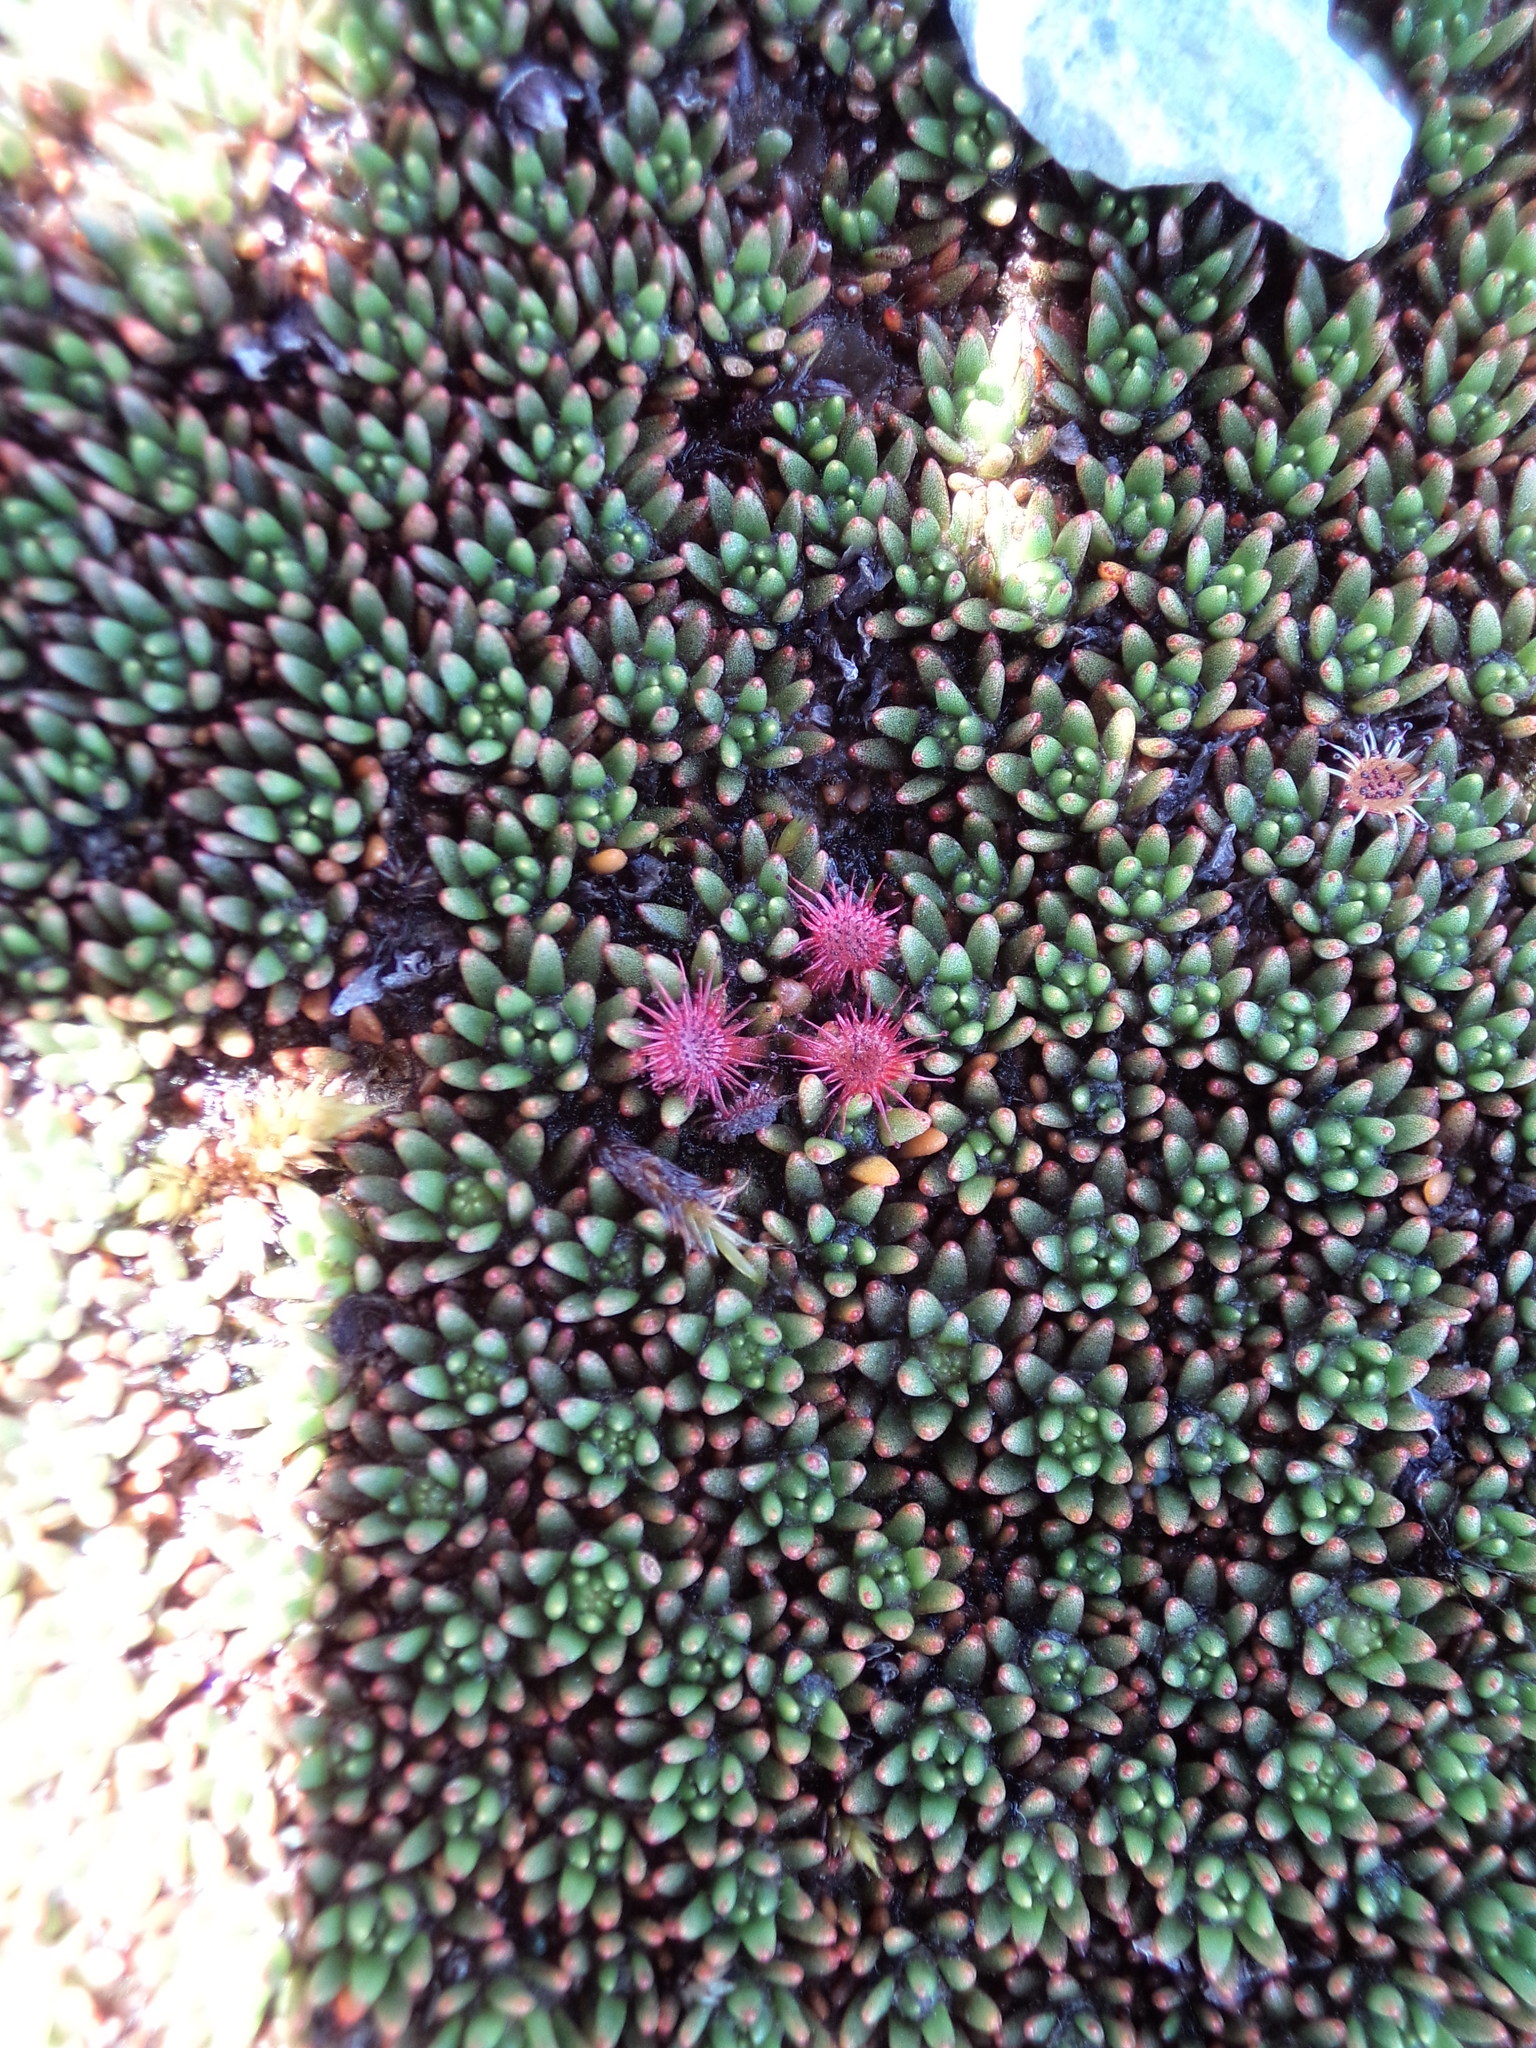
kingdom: Plantae
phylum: Tracheophyta
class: Magnoliopsida
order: Caryophyllales
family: Droseraceae
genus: Drosera
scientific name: Drosera spatulata
